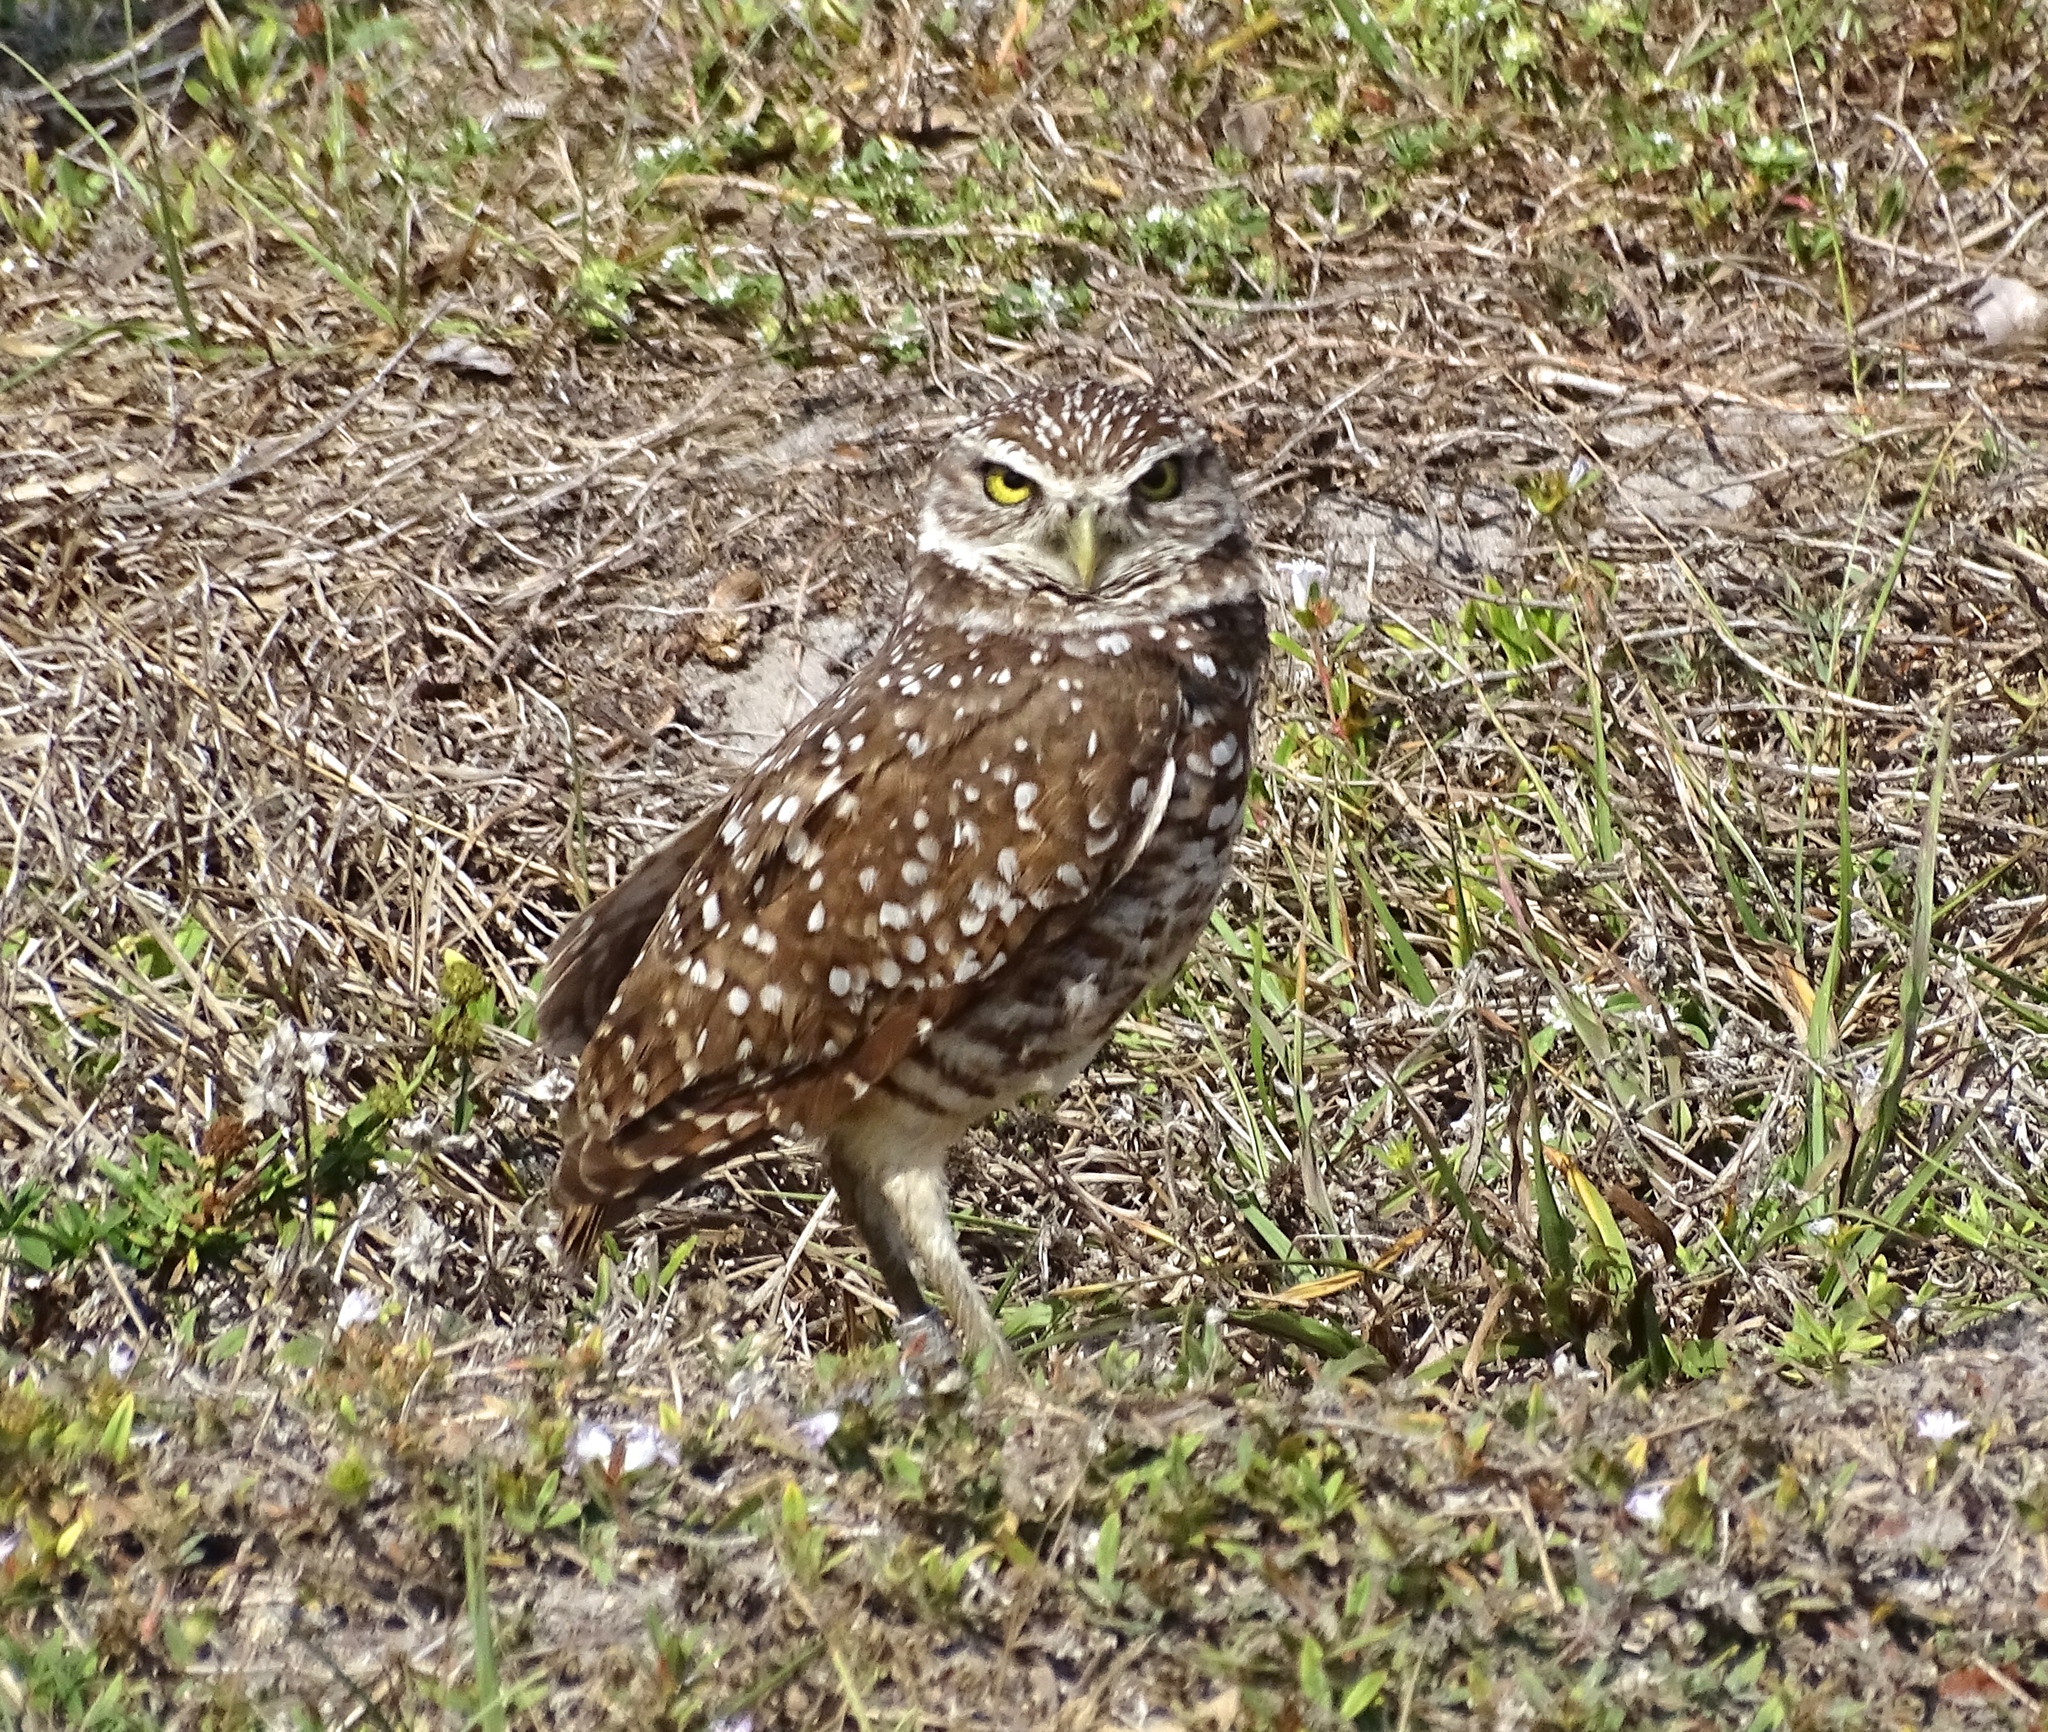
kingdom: Animalia
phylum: Chordata
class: Aves
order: Strigiformes
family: Strigidae
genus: Athene
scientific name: Athene cunicularia
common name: Burrowing owl
